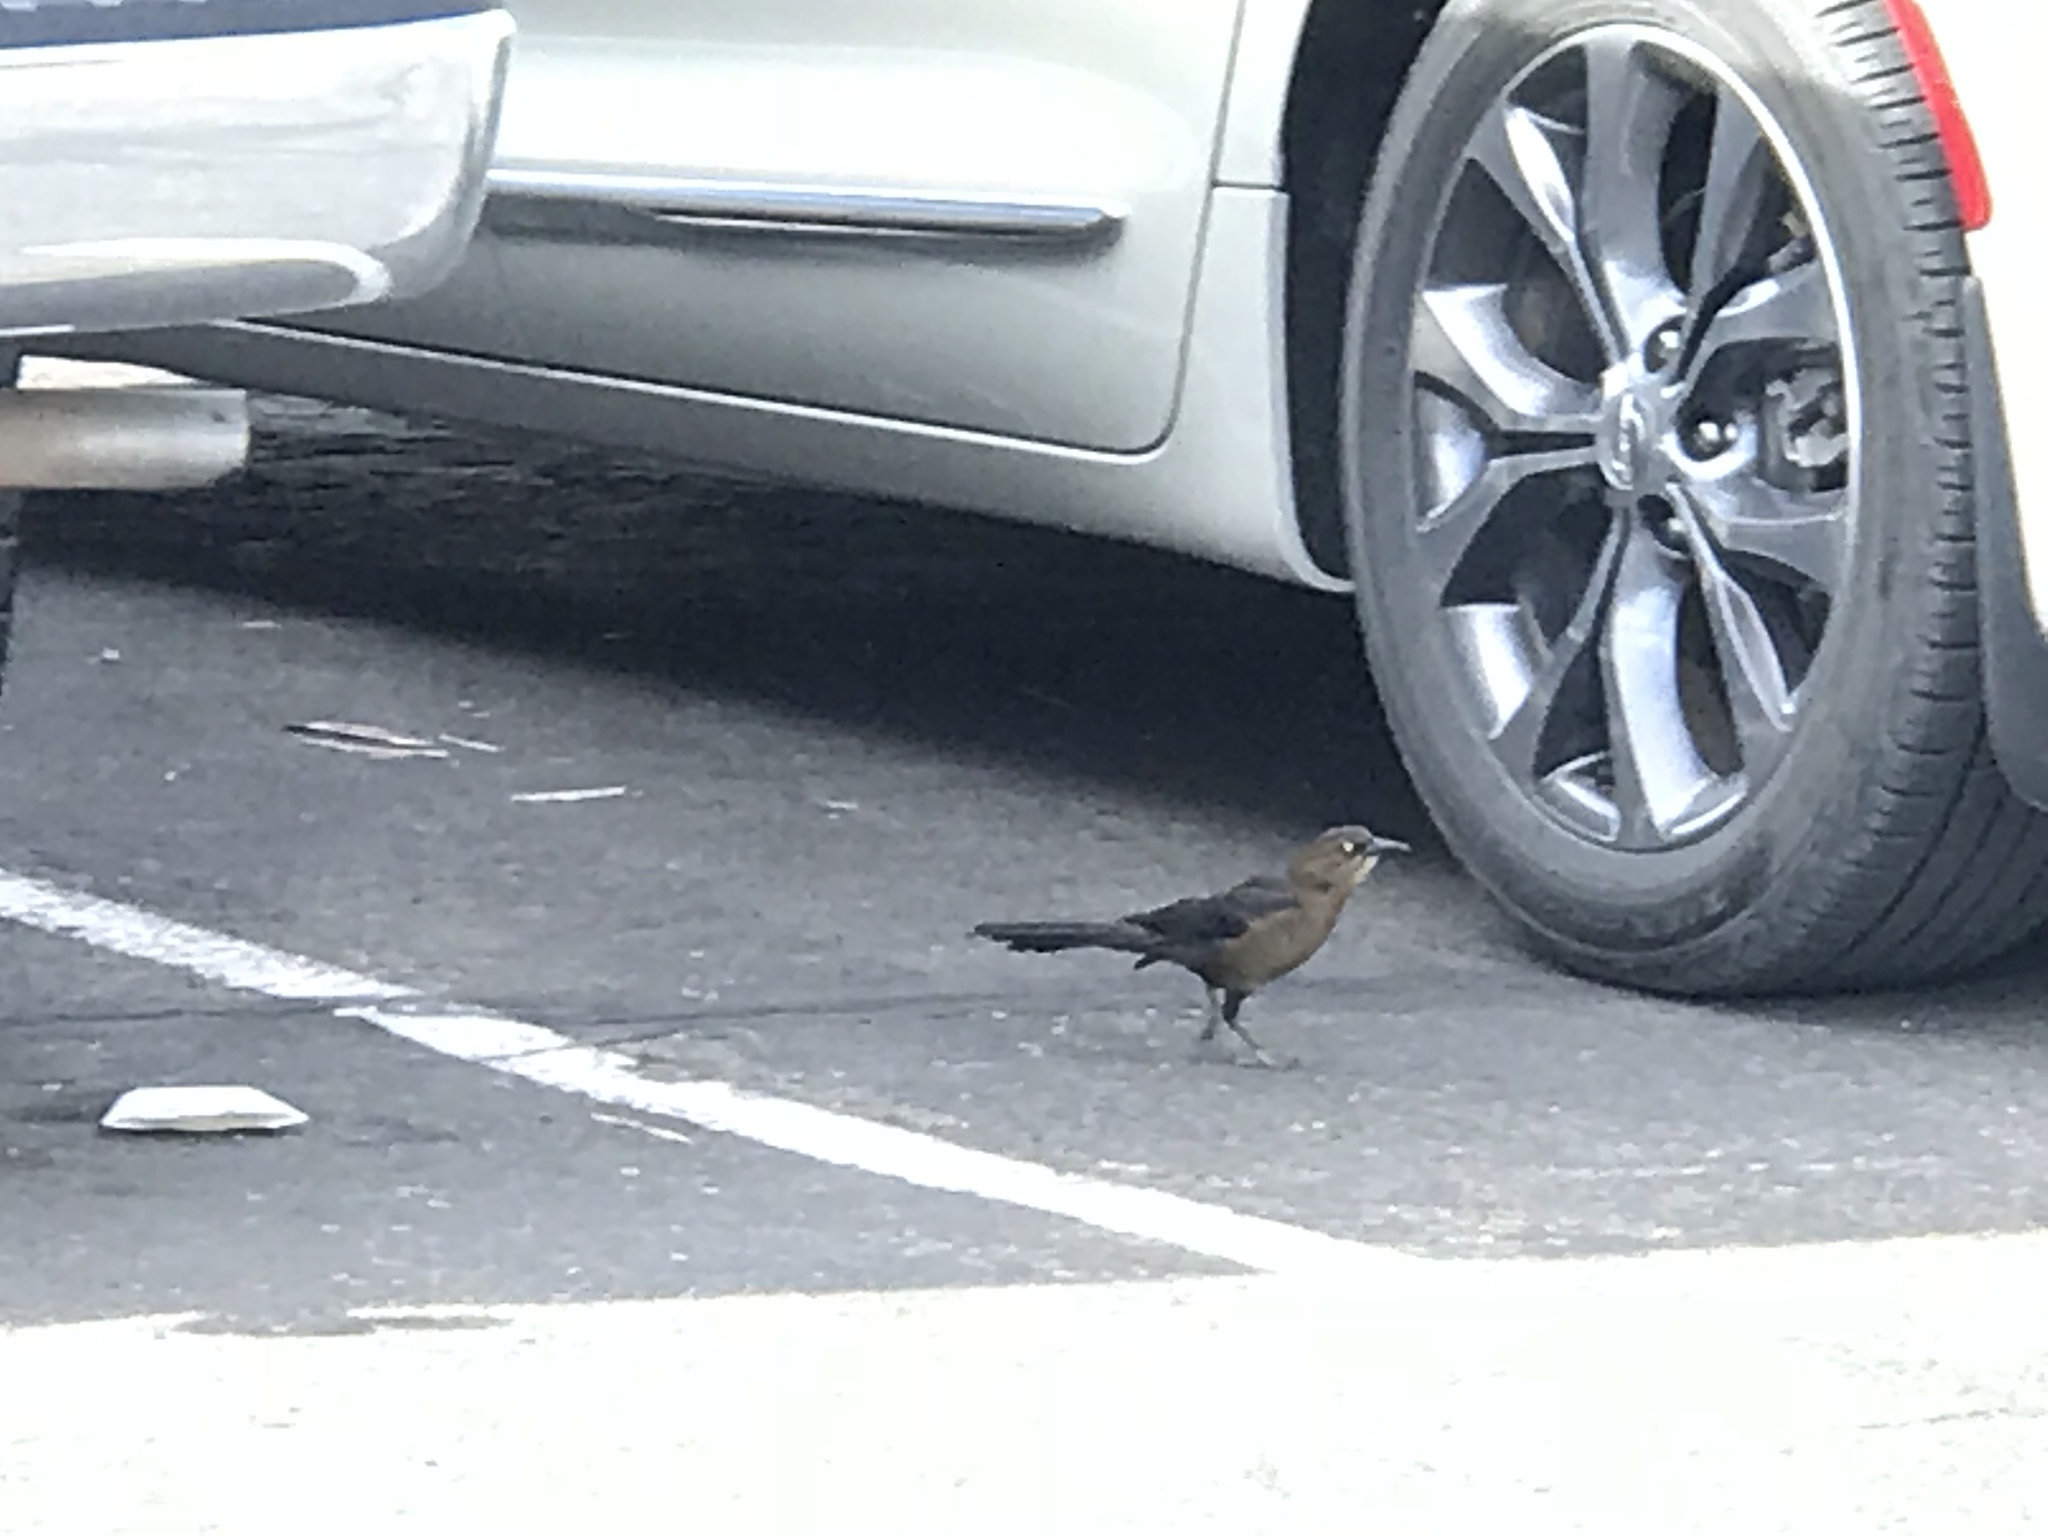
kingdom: Animalia
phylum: Chordata
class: Aves
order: Passeriformes
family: Icteridae
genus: Quiscalus
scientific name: Quiscalus mexicanus
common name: Great-tailed grackle
